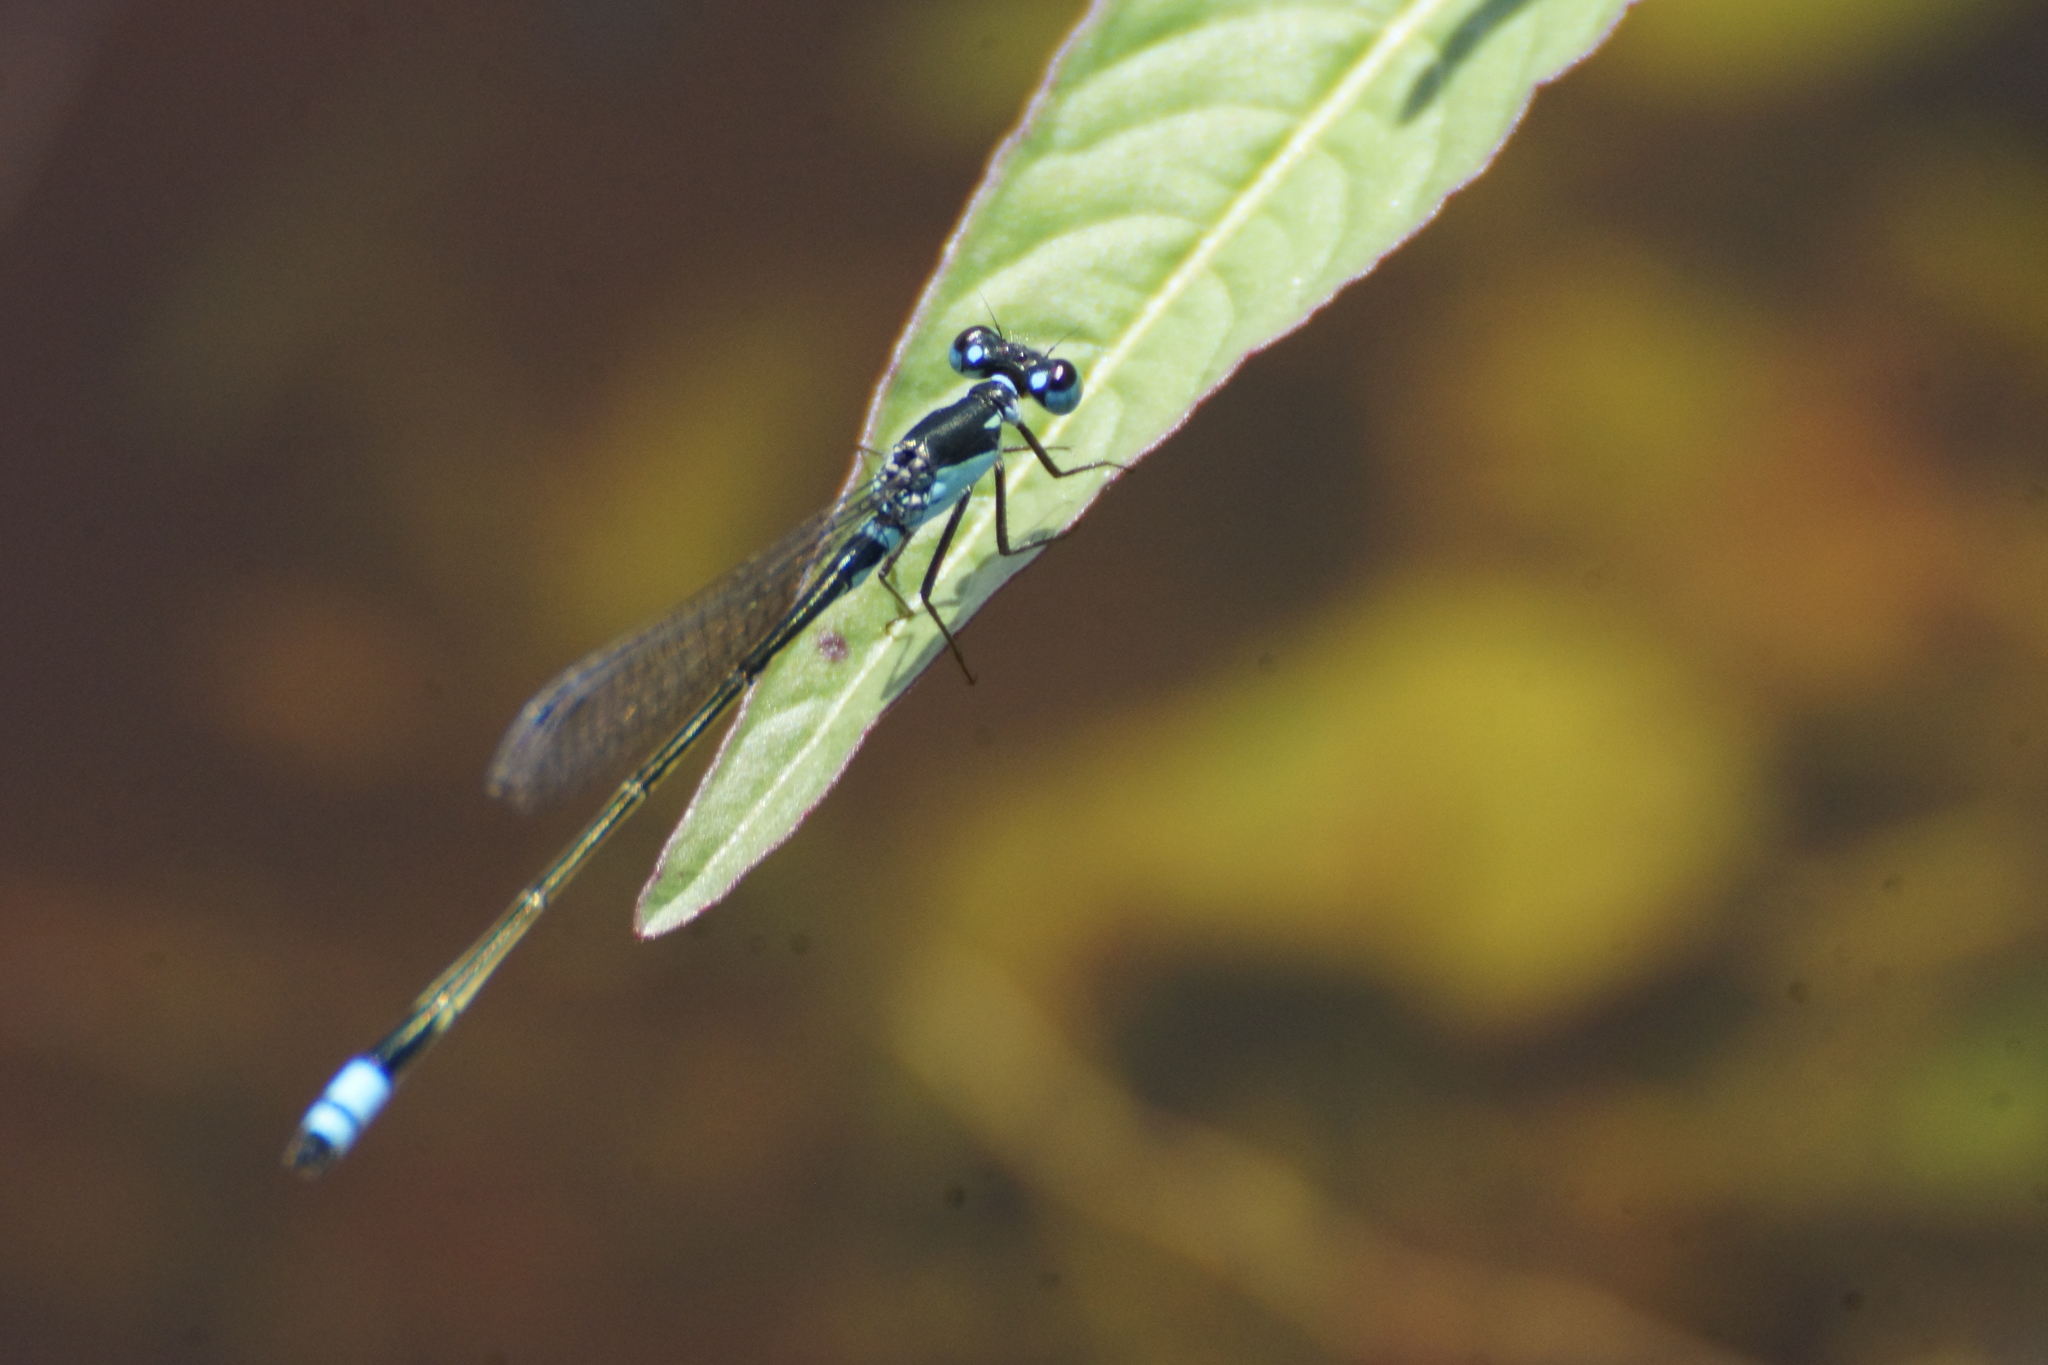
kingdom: Animalia
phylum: Arthropoda
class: Insecta
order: Odonata
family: Coenagrionidae
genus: Ischnura
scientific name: Ischnura heterosticta
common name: Common bluetail
